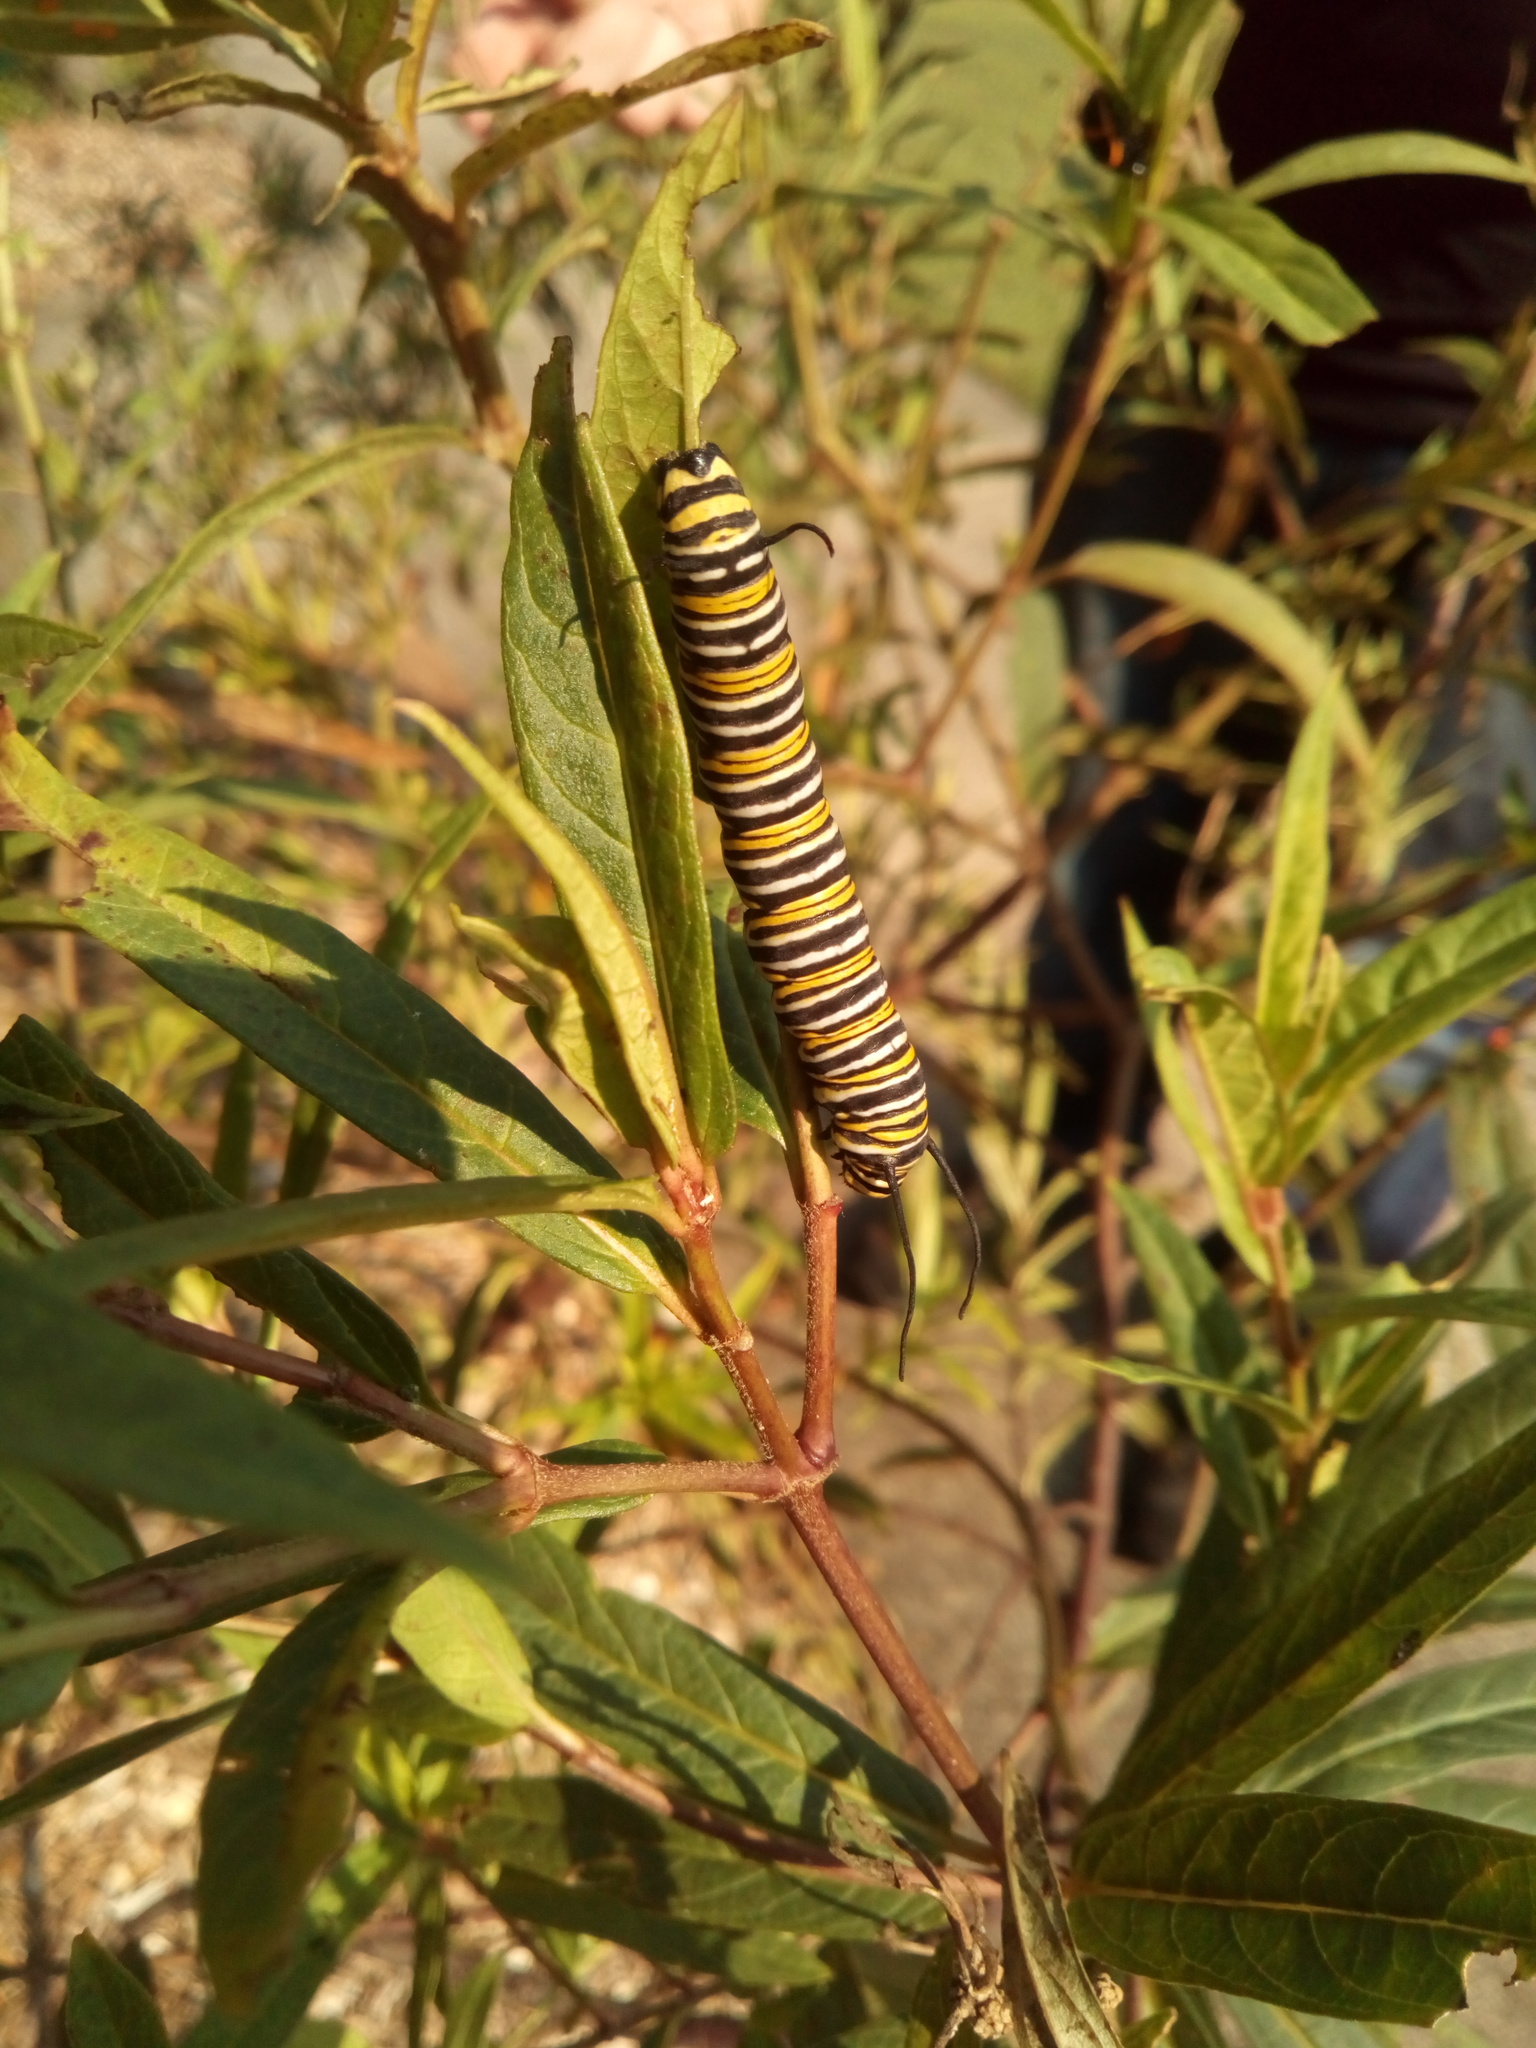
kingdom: Animalia
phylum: Arthropoda
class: Insecta
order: Lepidoptera
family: Nymphalidae
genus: Danaus
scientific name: Danaus plexippus
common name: Monarch
